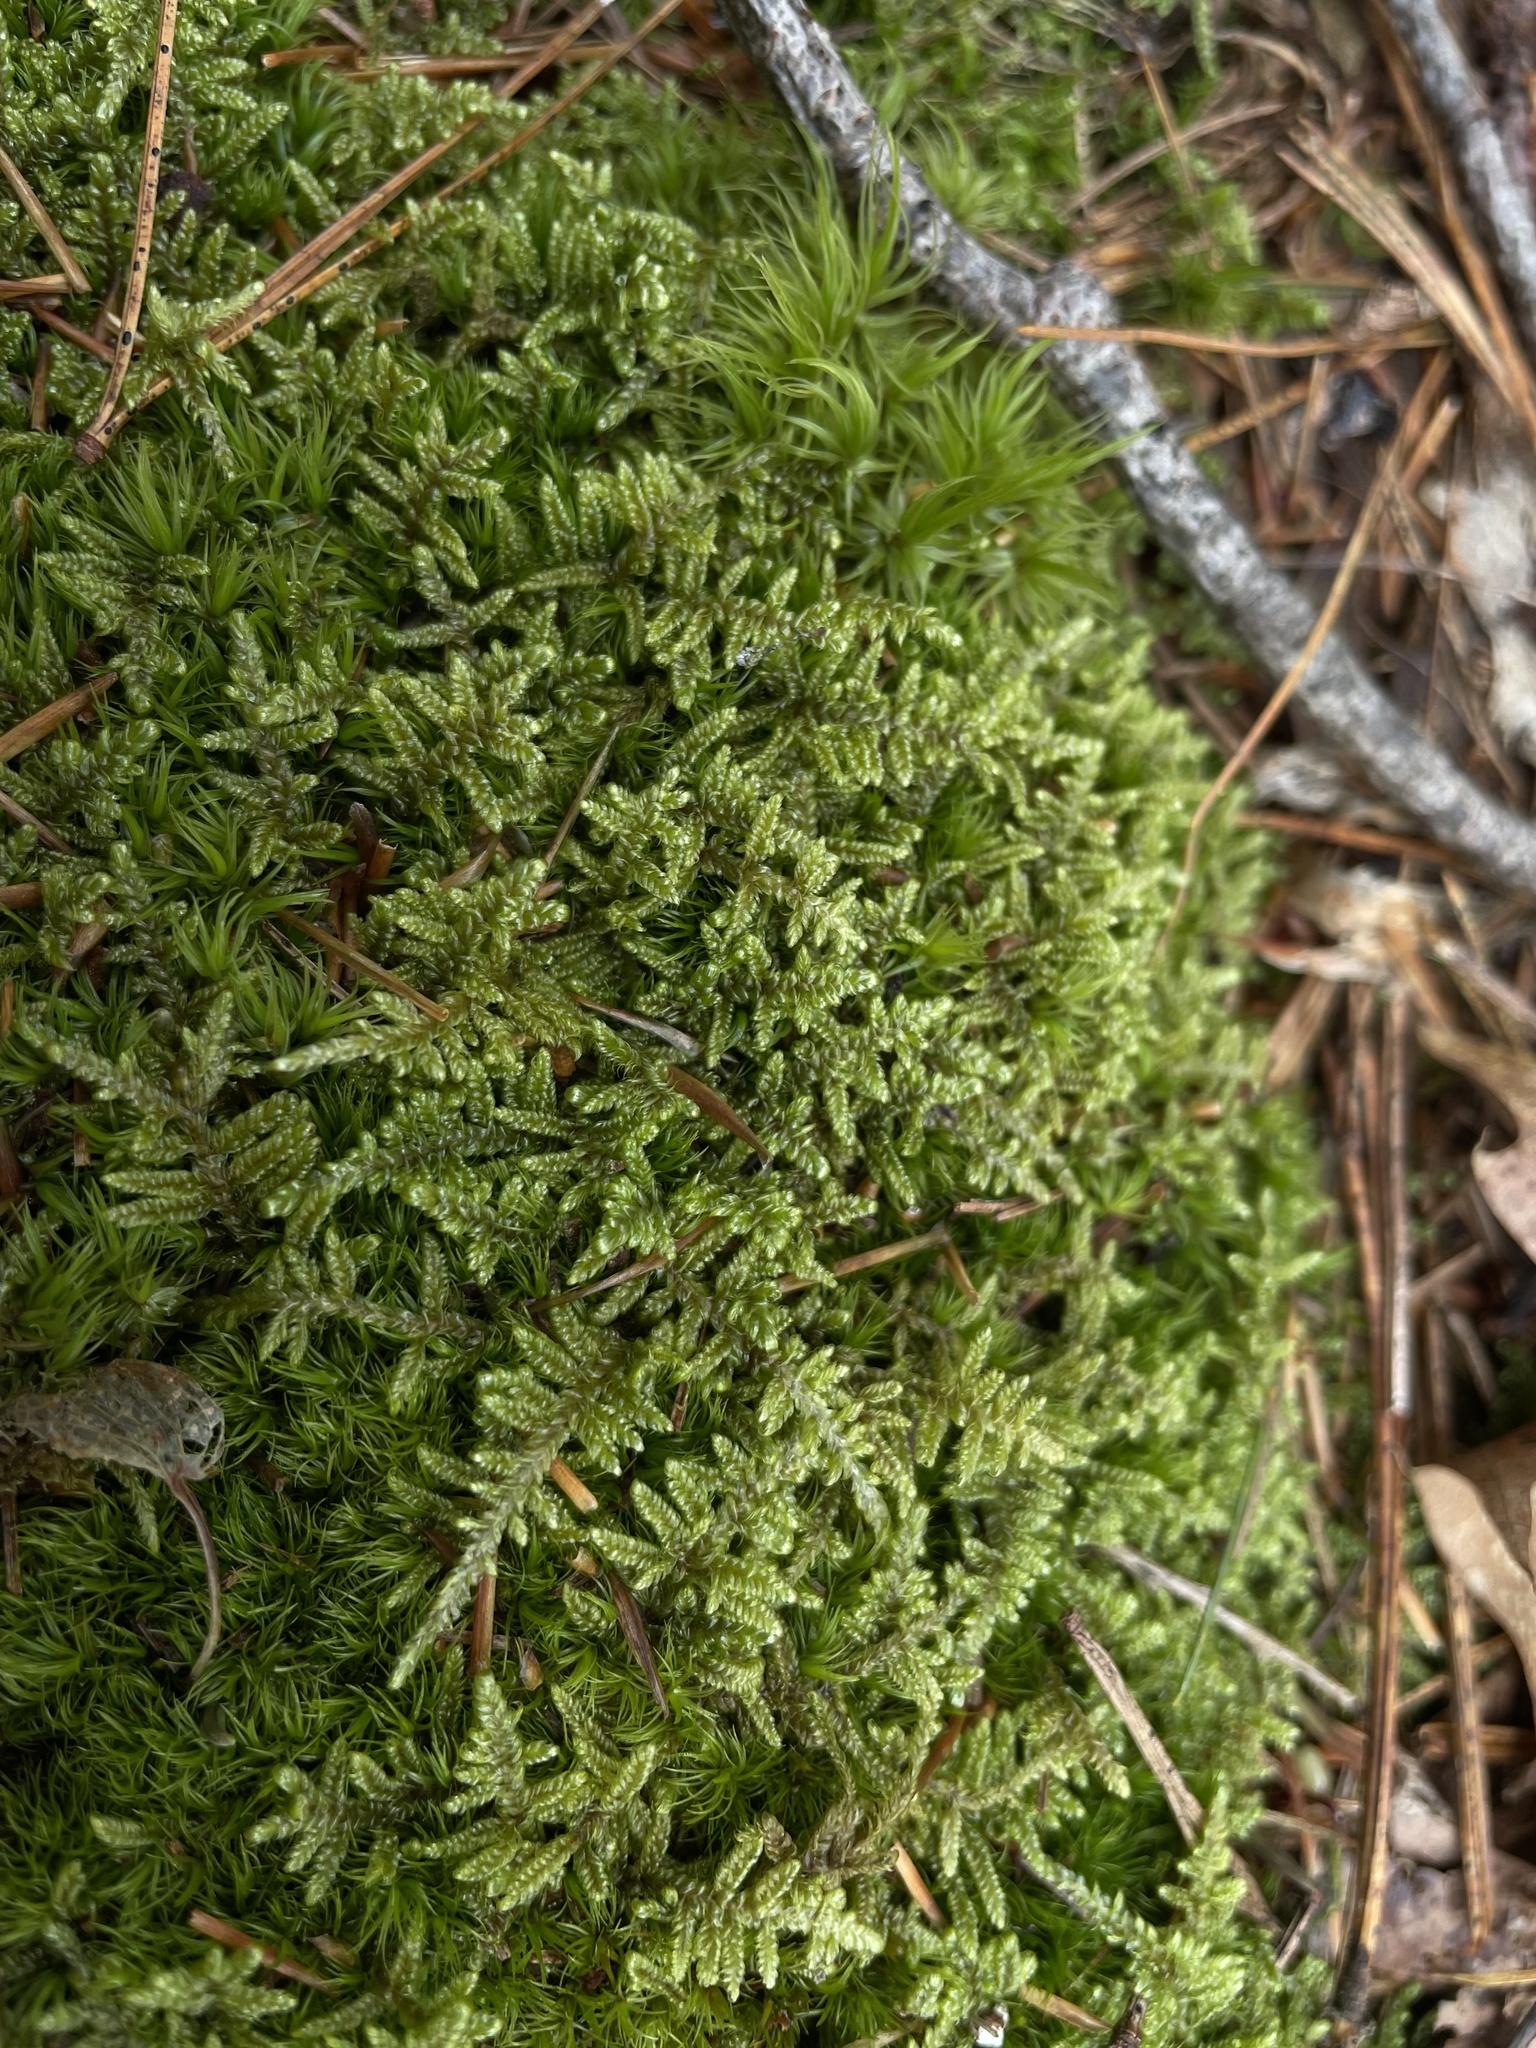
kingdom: Plantae
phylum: Bryophyta
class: Bryopsida
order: Hypnales
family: Callicladiaceae
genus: Callicladium
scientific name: Callicladium imponens
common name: Brocade moss
